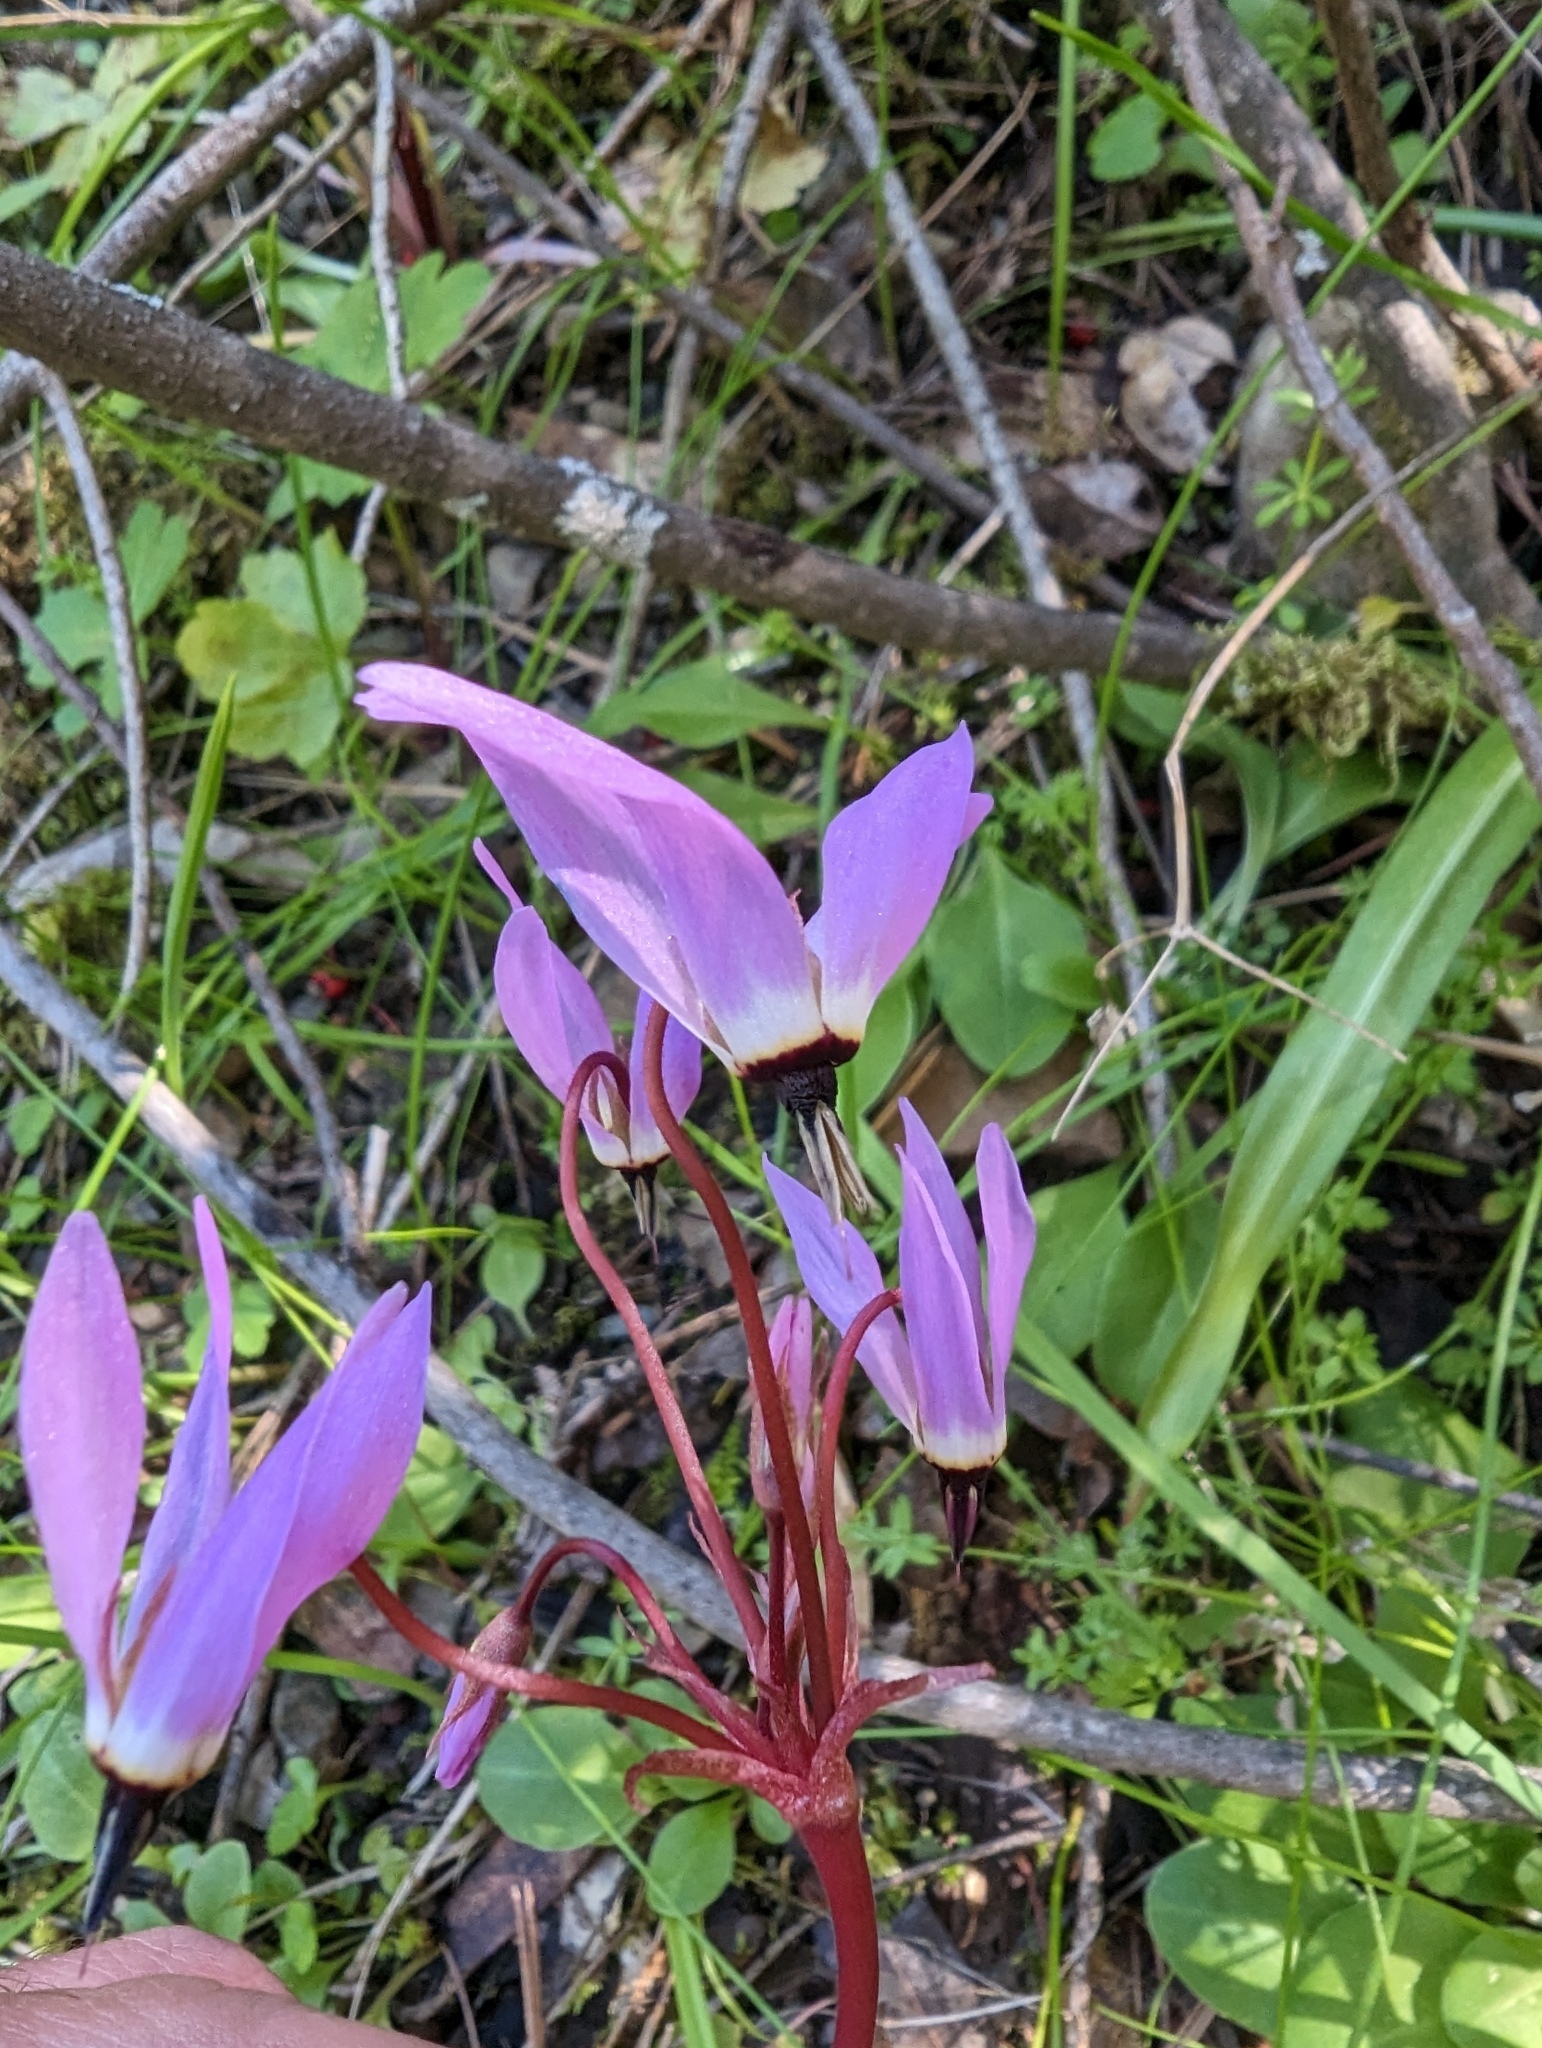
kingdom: Plantae
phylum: Tracheophyta
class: Magnoliopsida
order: Ericales
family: Primulaceae
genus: Dodecatheon
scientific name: Dodecatheon hendersonii
